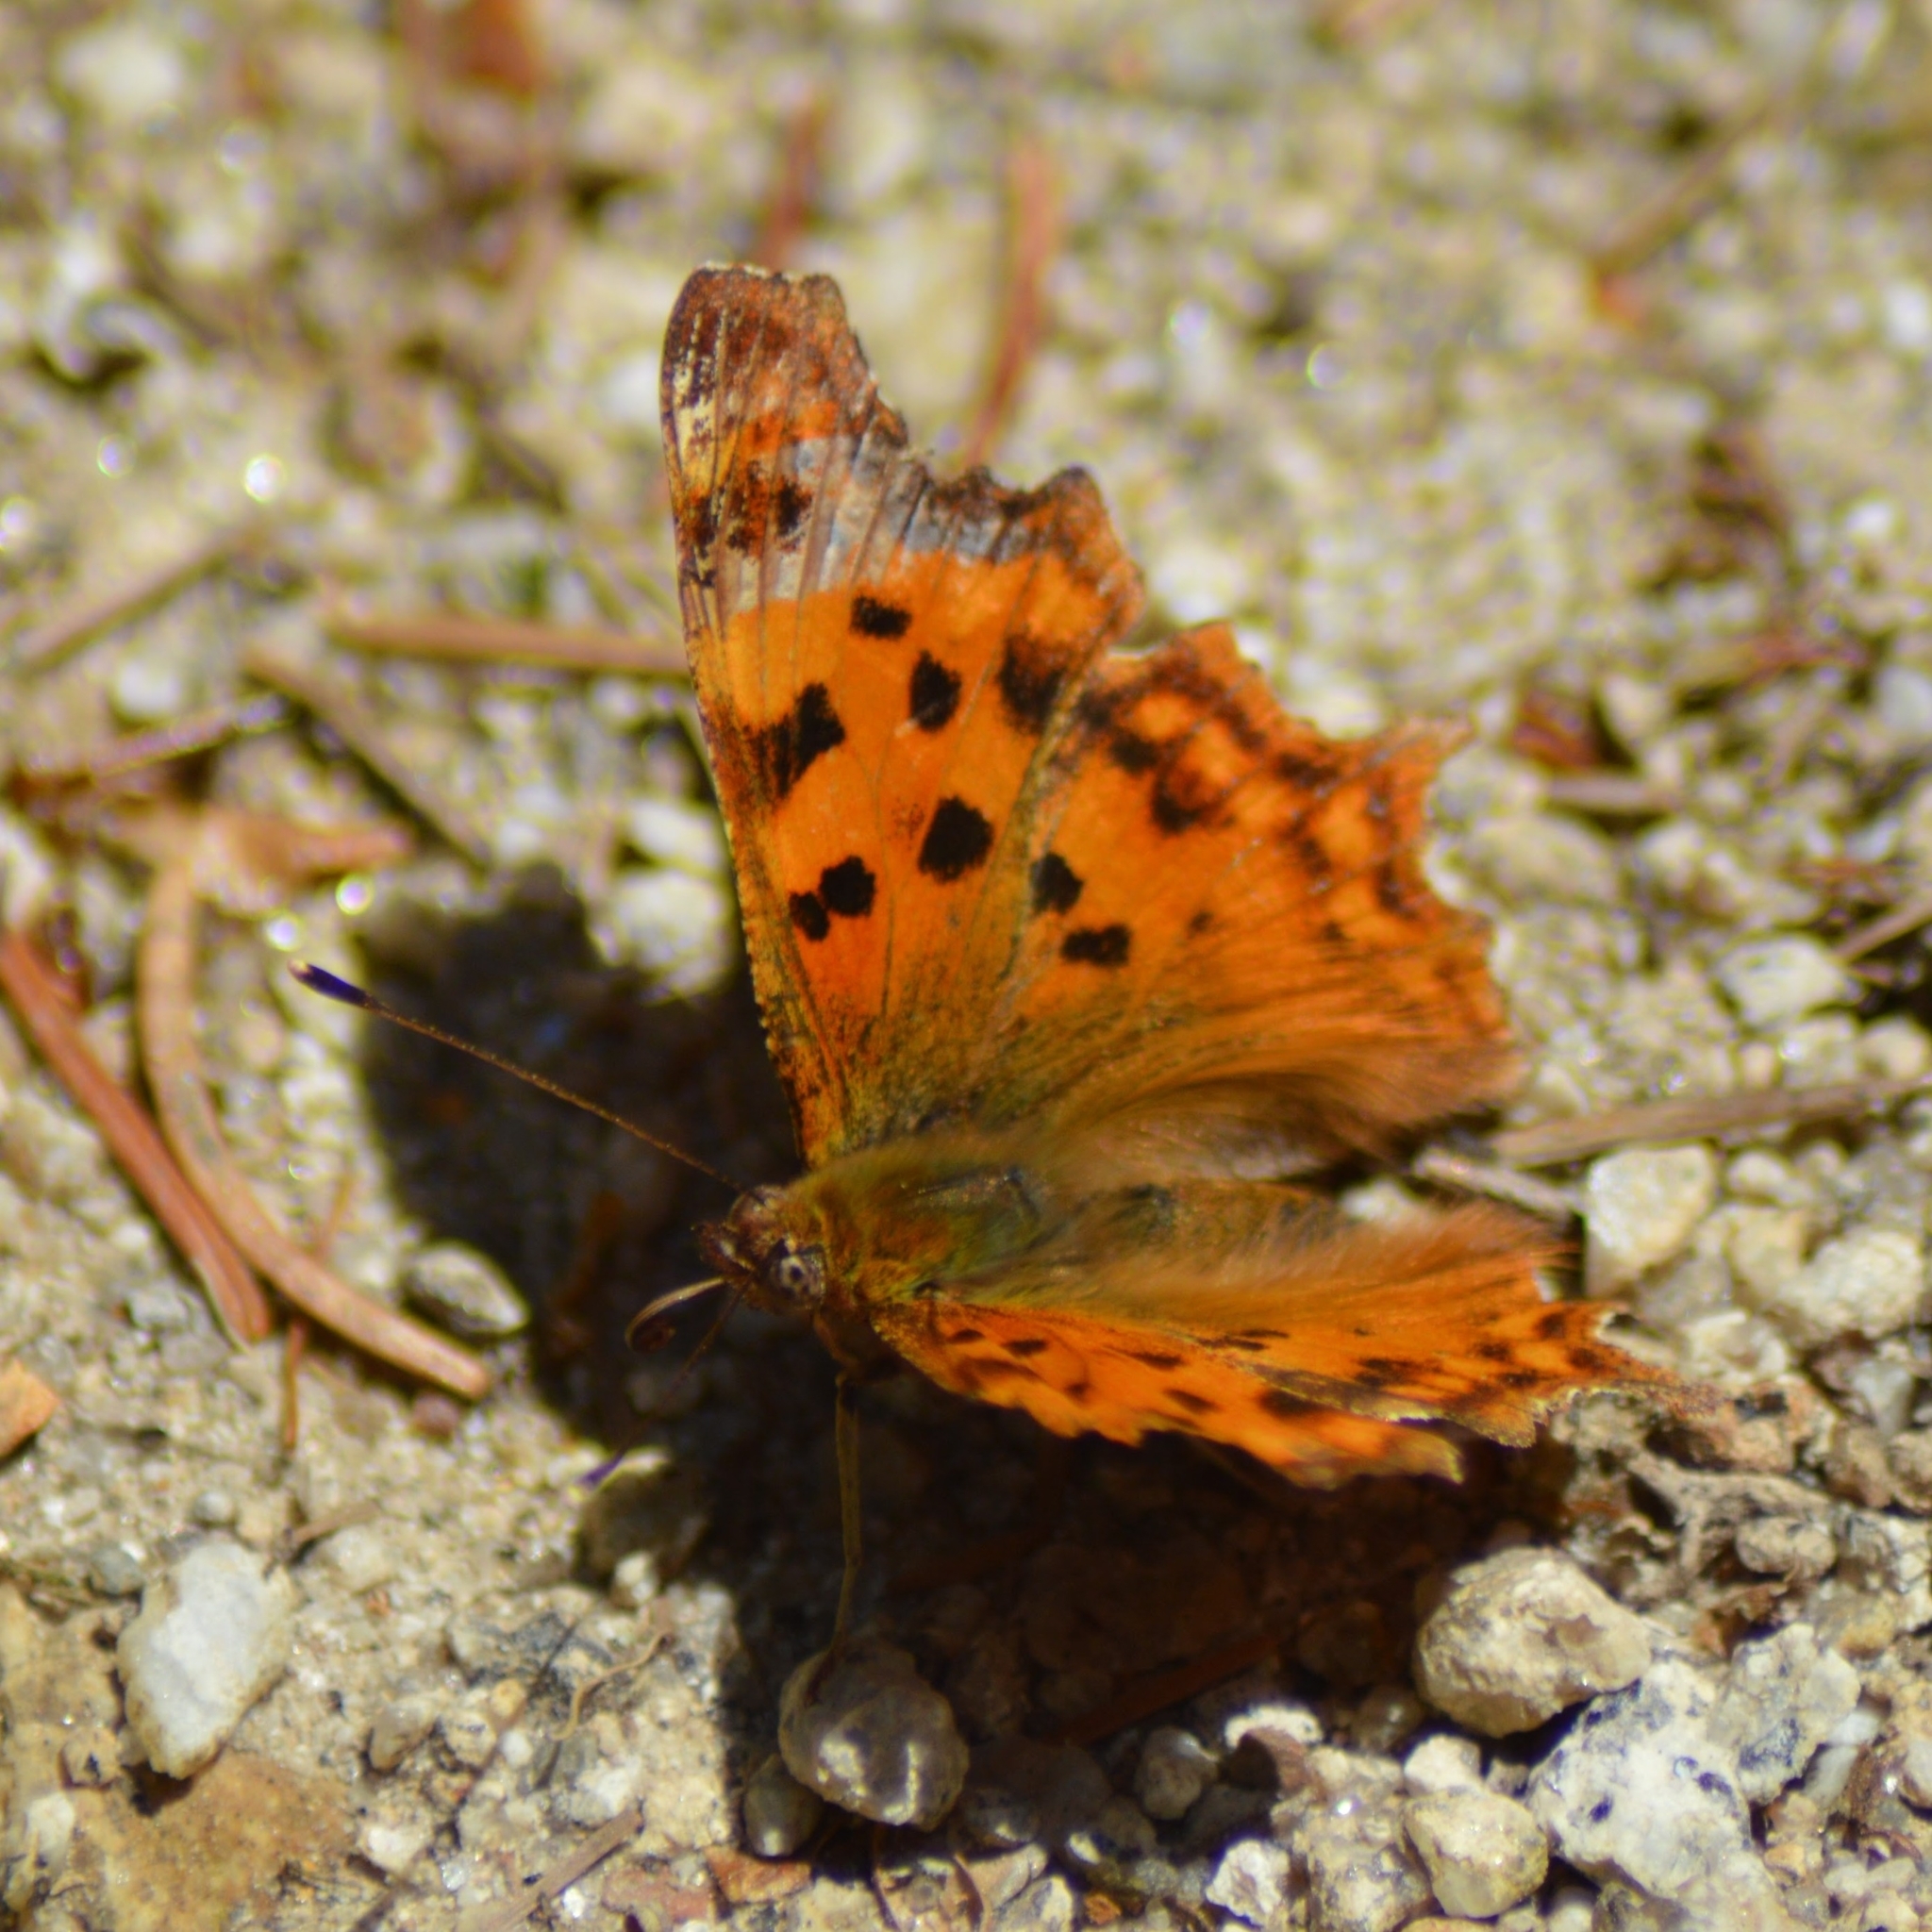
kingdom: Animalia
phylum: Arthropoda
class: Insecta
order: Lepidoptera
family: Nymphalidae
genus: Polygonia
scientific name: Polygonia c-album
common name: Comma
